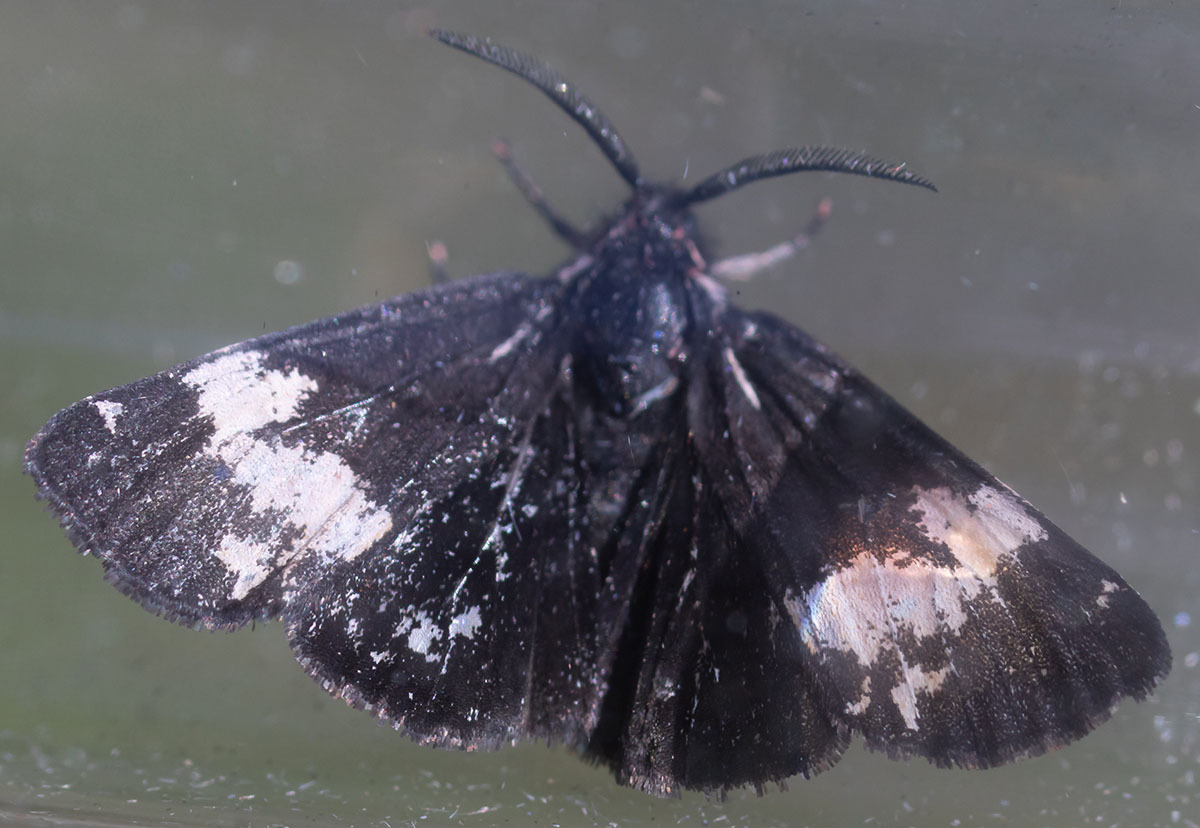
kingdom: Animalia
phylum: Arthropoda
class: Insecta
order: Lepidoptera
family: Erebidae
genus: Leptarctia
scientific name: Leptarctia californiae
